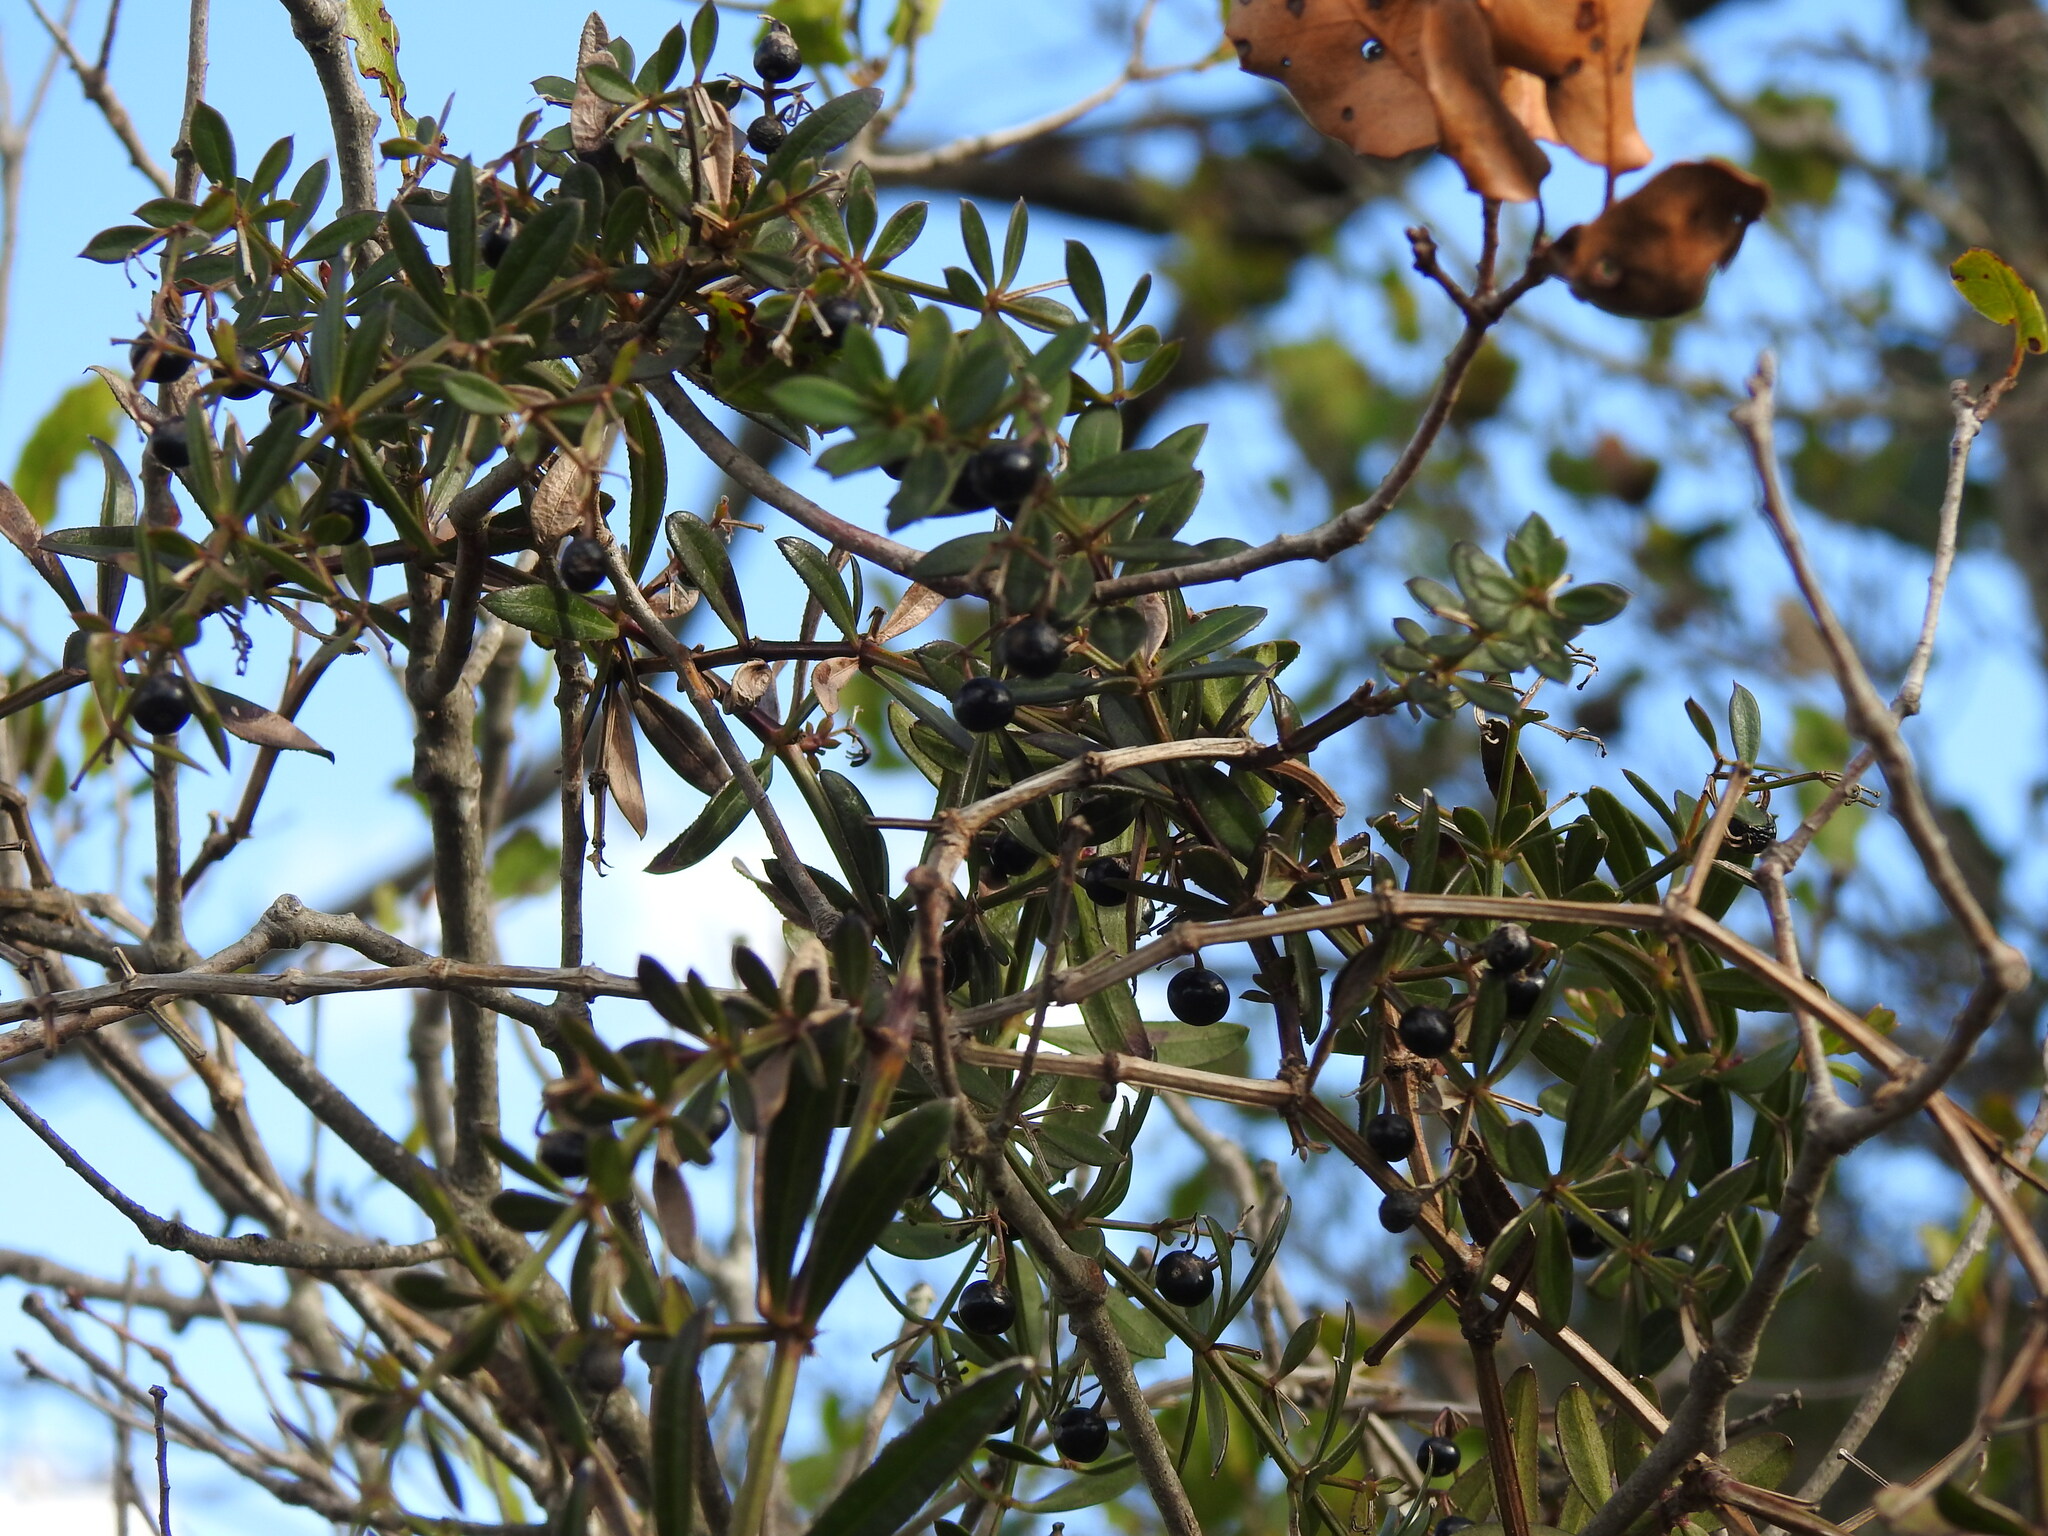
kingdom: Plantae
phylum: Tracheophyta
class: Magnoliopsida
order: Gentianales
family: Rubiaceae
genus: Rubia
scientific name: Rubia peregrina
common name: Wild madder
